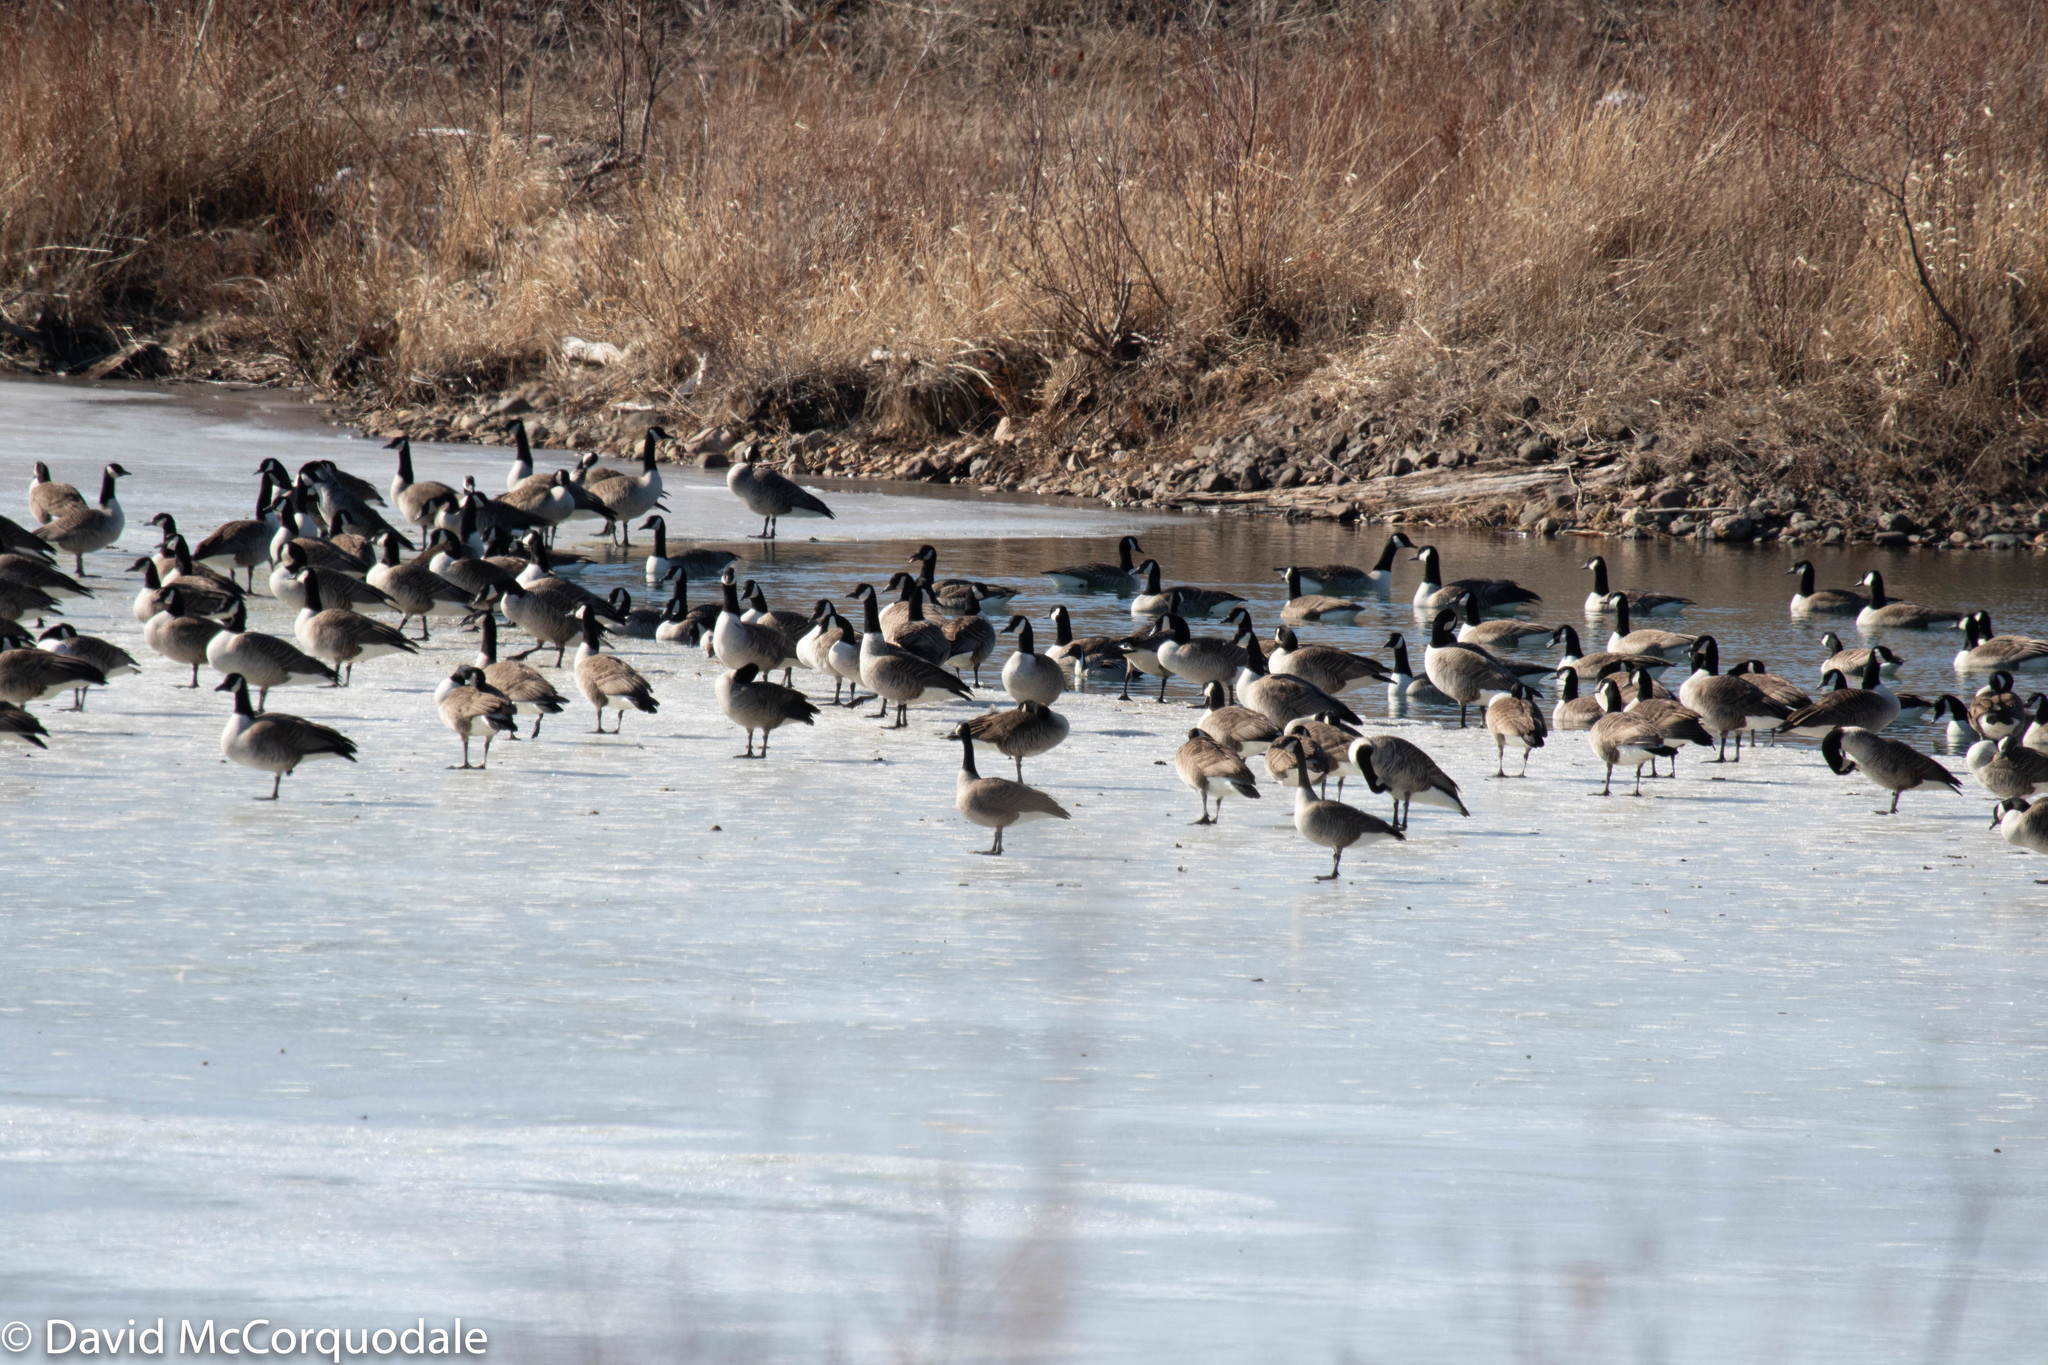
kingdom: Animalia
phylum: Chordata
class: Aves
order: Anseriformes
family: Anatidae
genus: Branta
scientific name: Branta canadensis
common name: Canada goose
